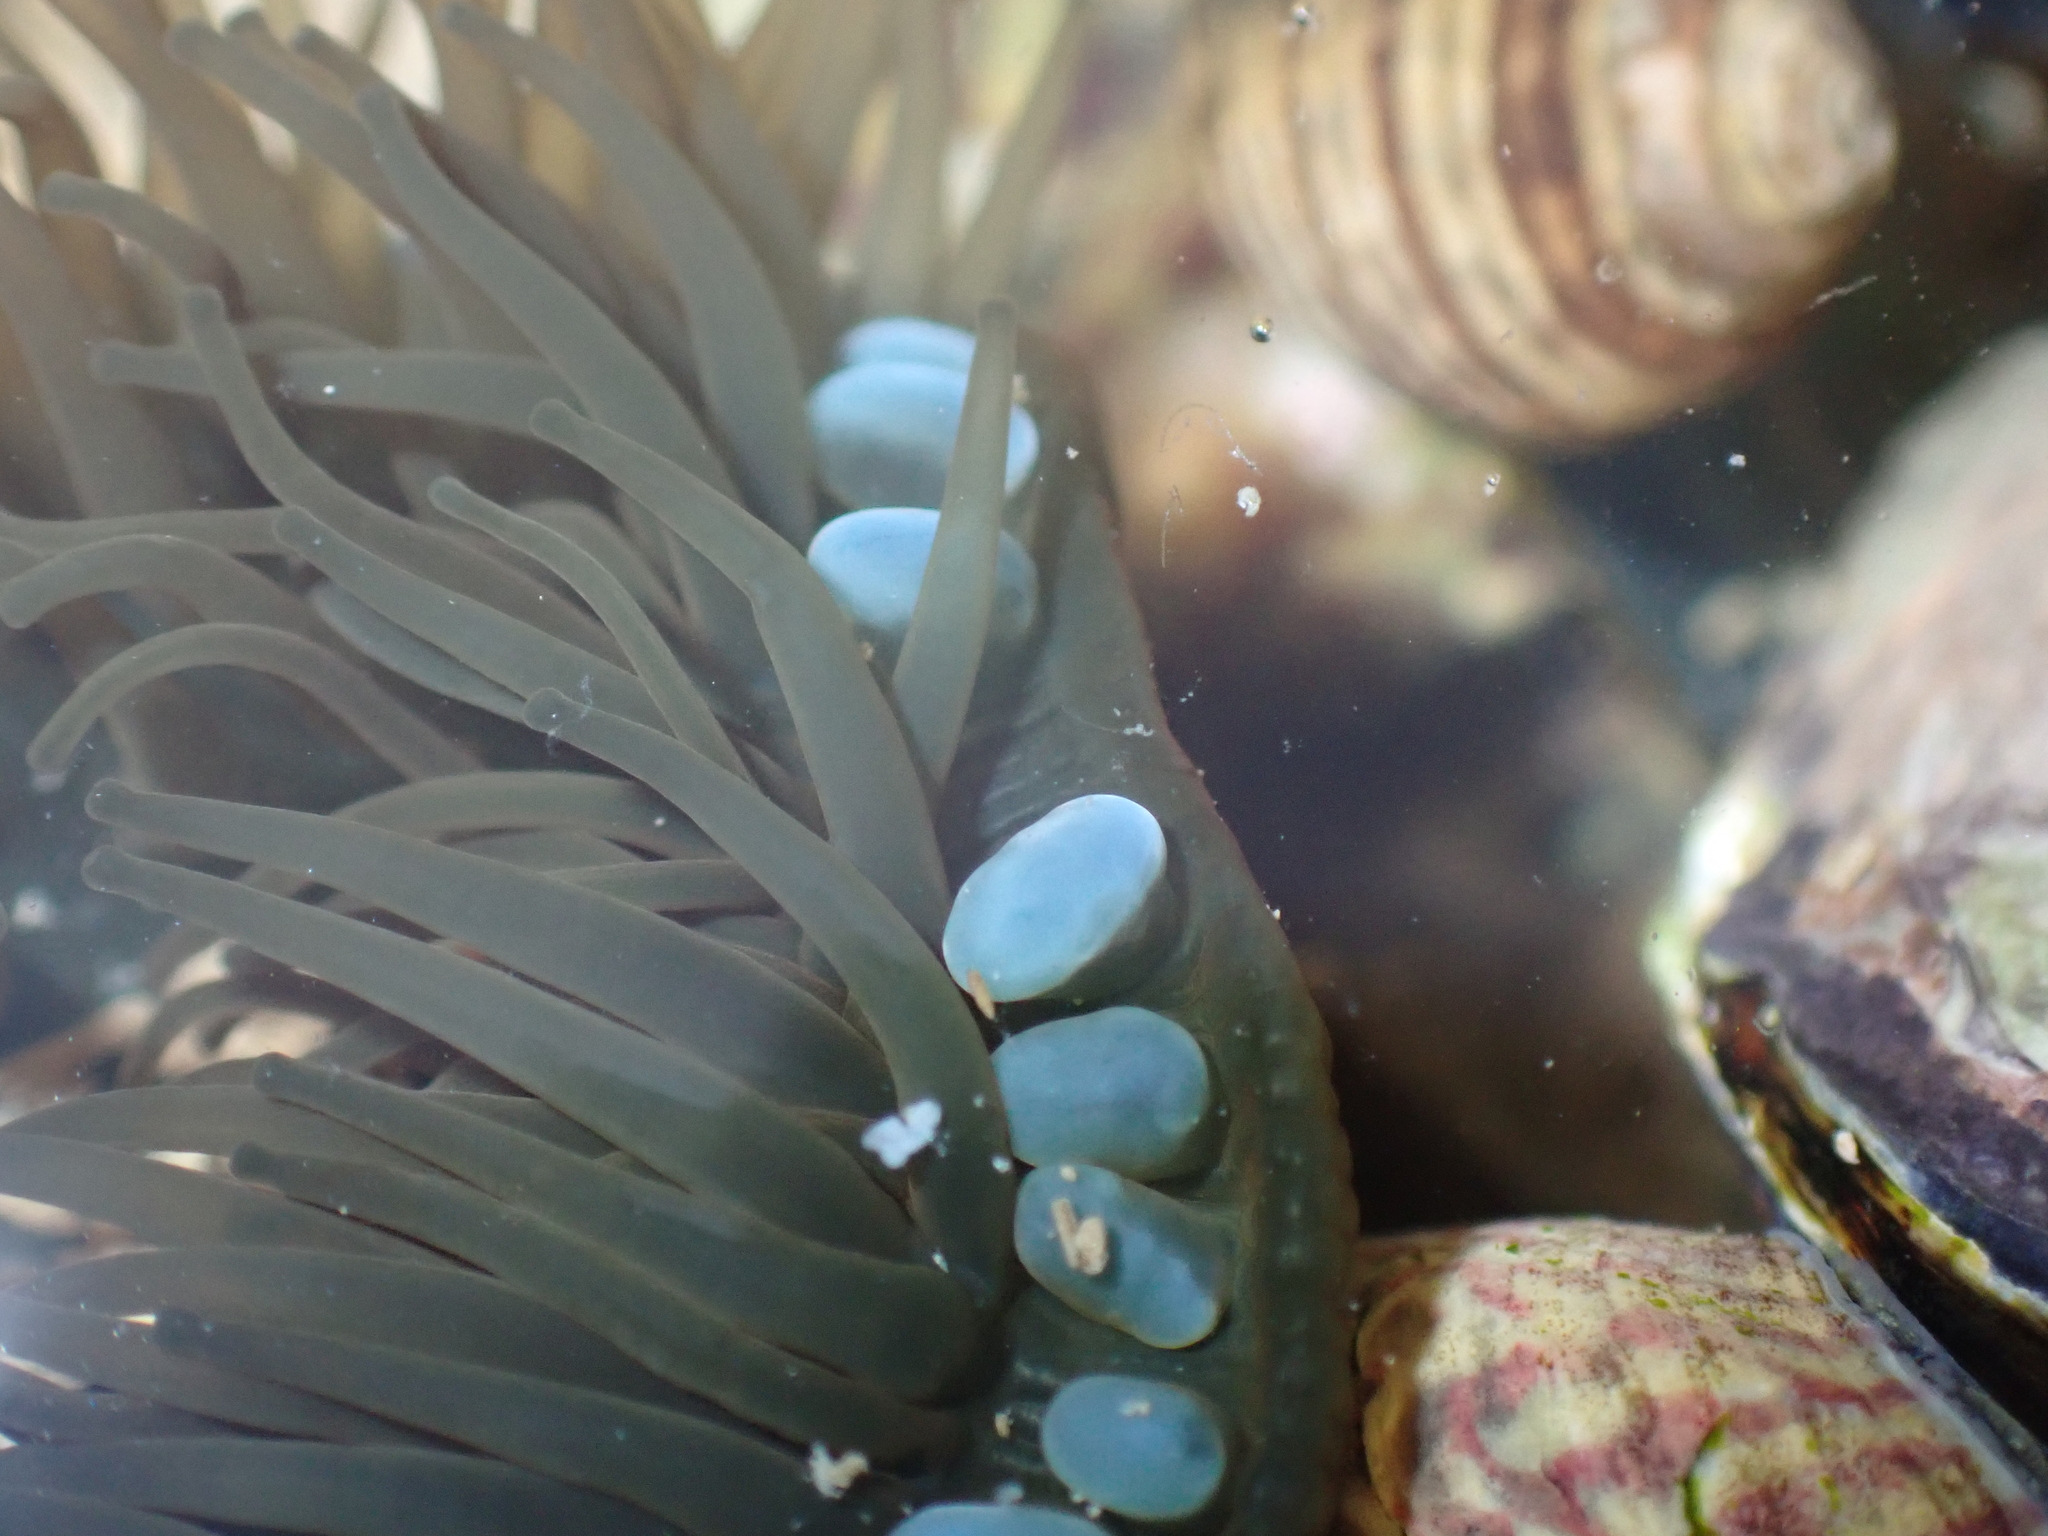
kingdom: Animalia
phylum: Cnidaria
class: Anthozoa
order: Actiniaria
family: Actiniidae
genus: Actinia
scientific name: Actinia equina
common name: Beadlet anemone
